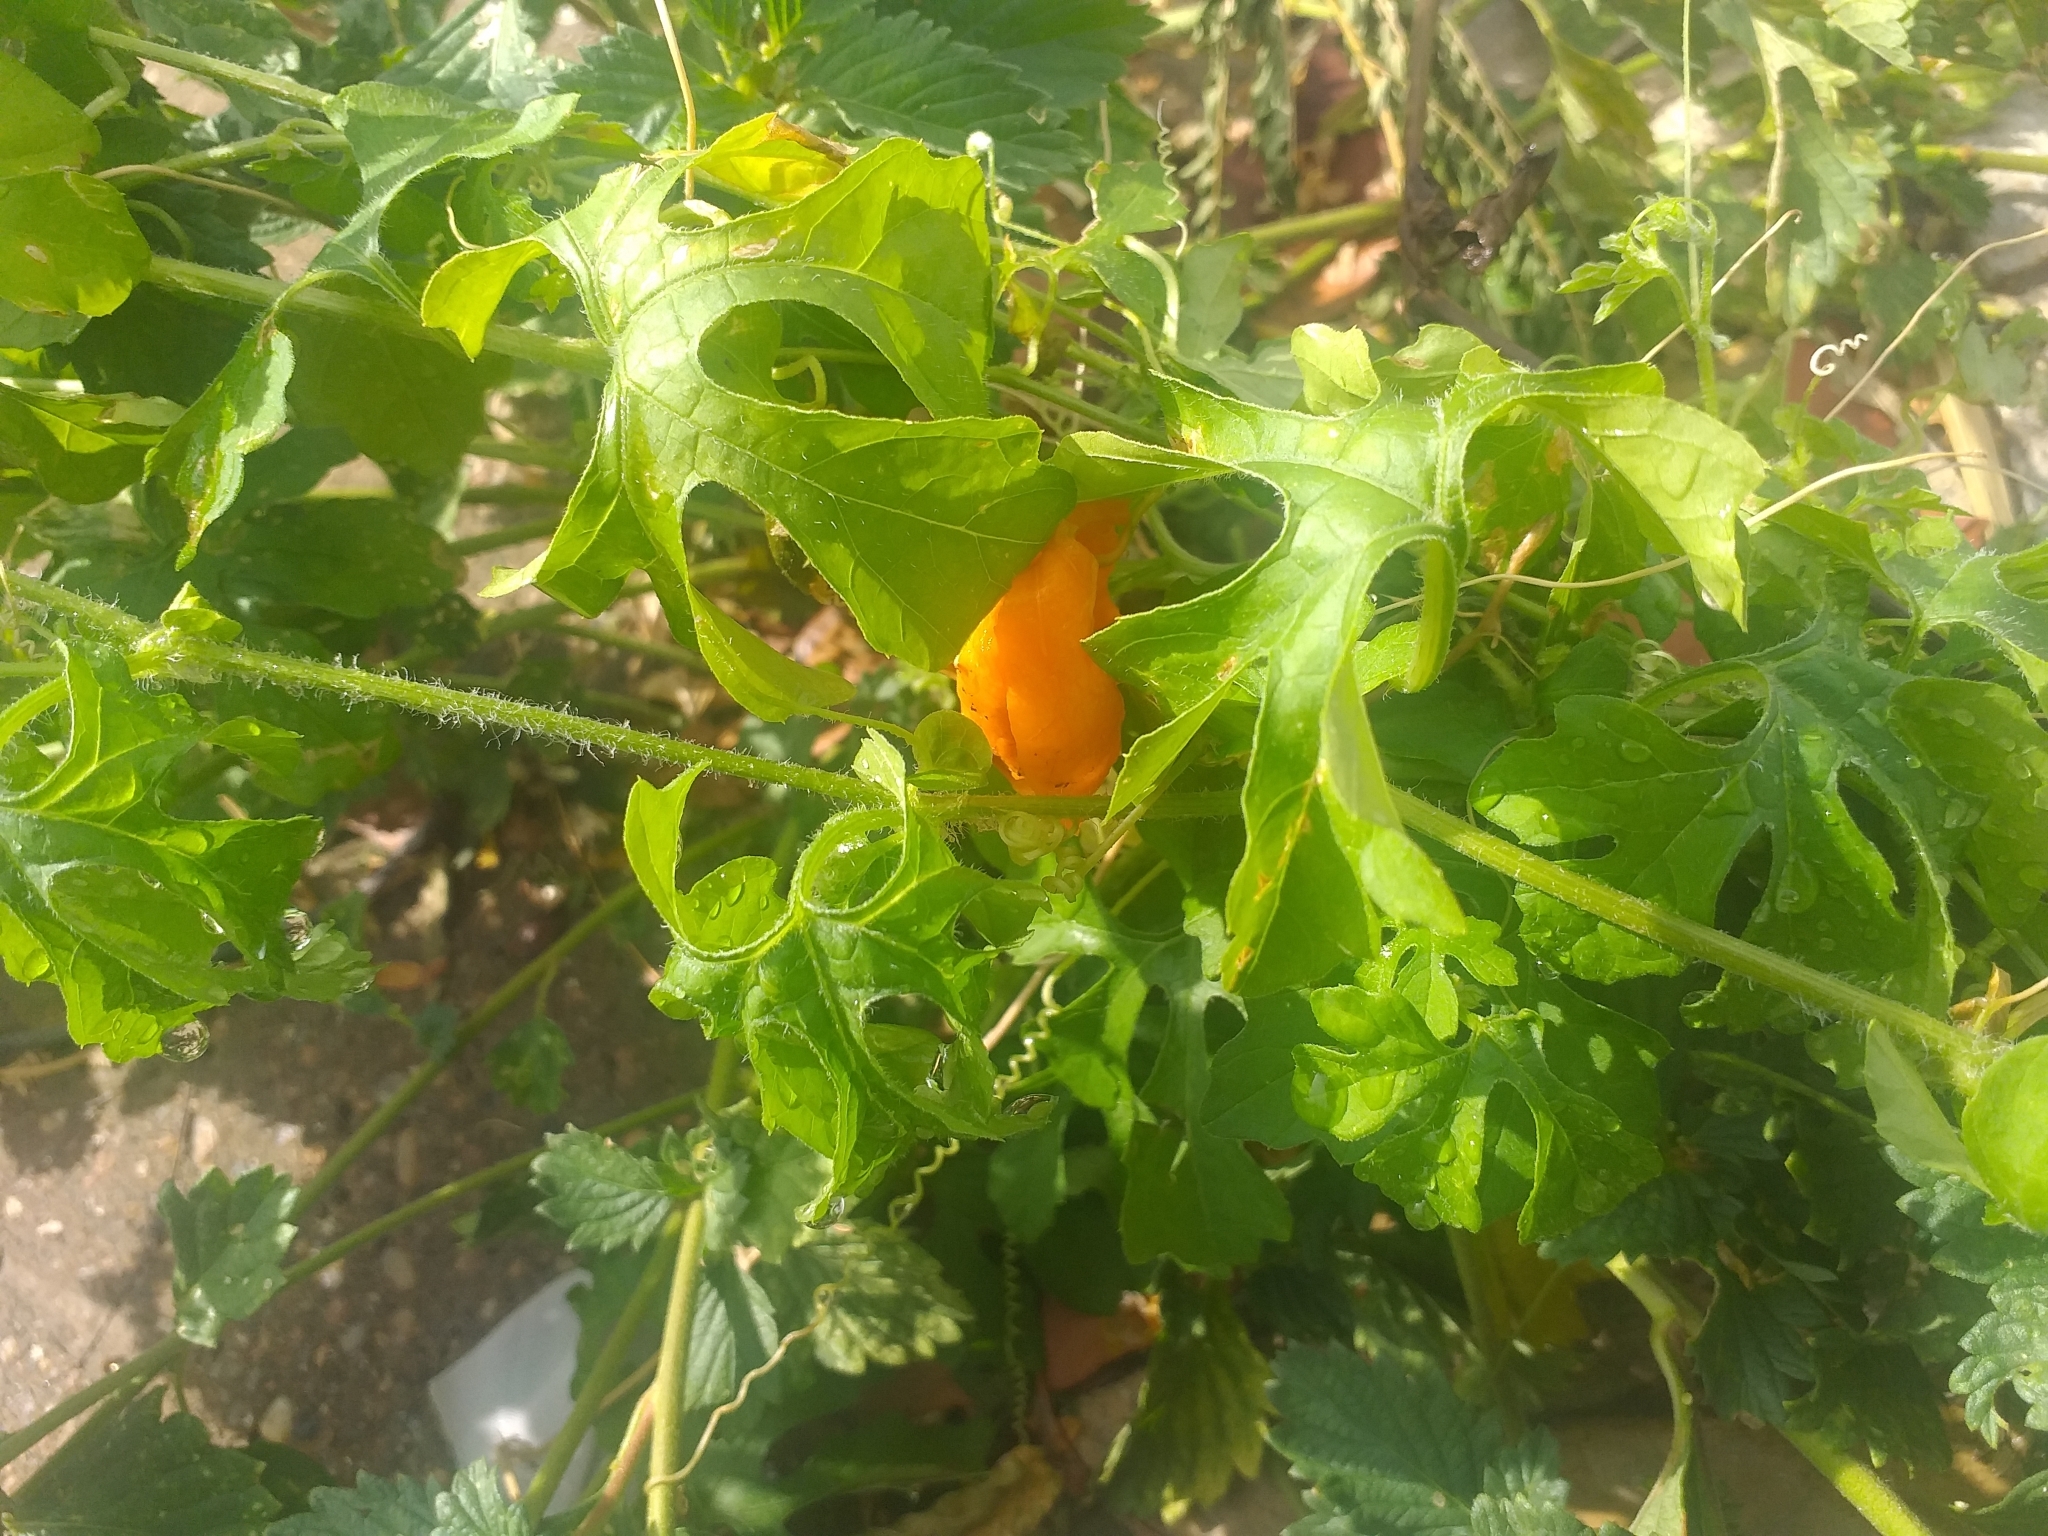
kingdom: Plantae
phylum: Tracheophyta
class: Magnoliopsida
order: Cucurbitales
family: Cucurbitaceae
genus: Momordica
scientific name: Momordica charantia
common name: Balsampear
